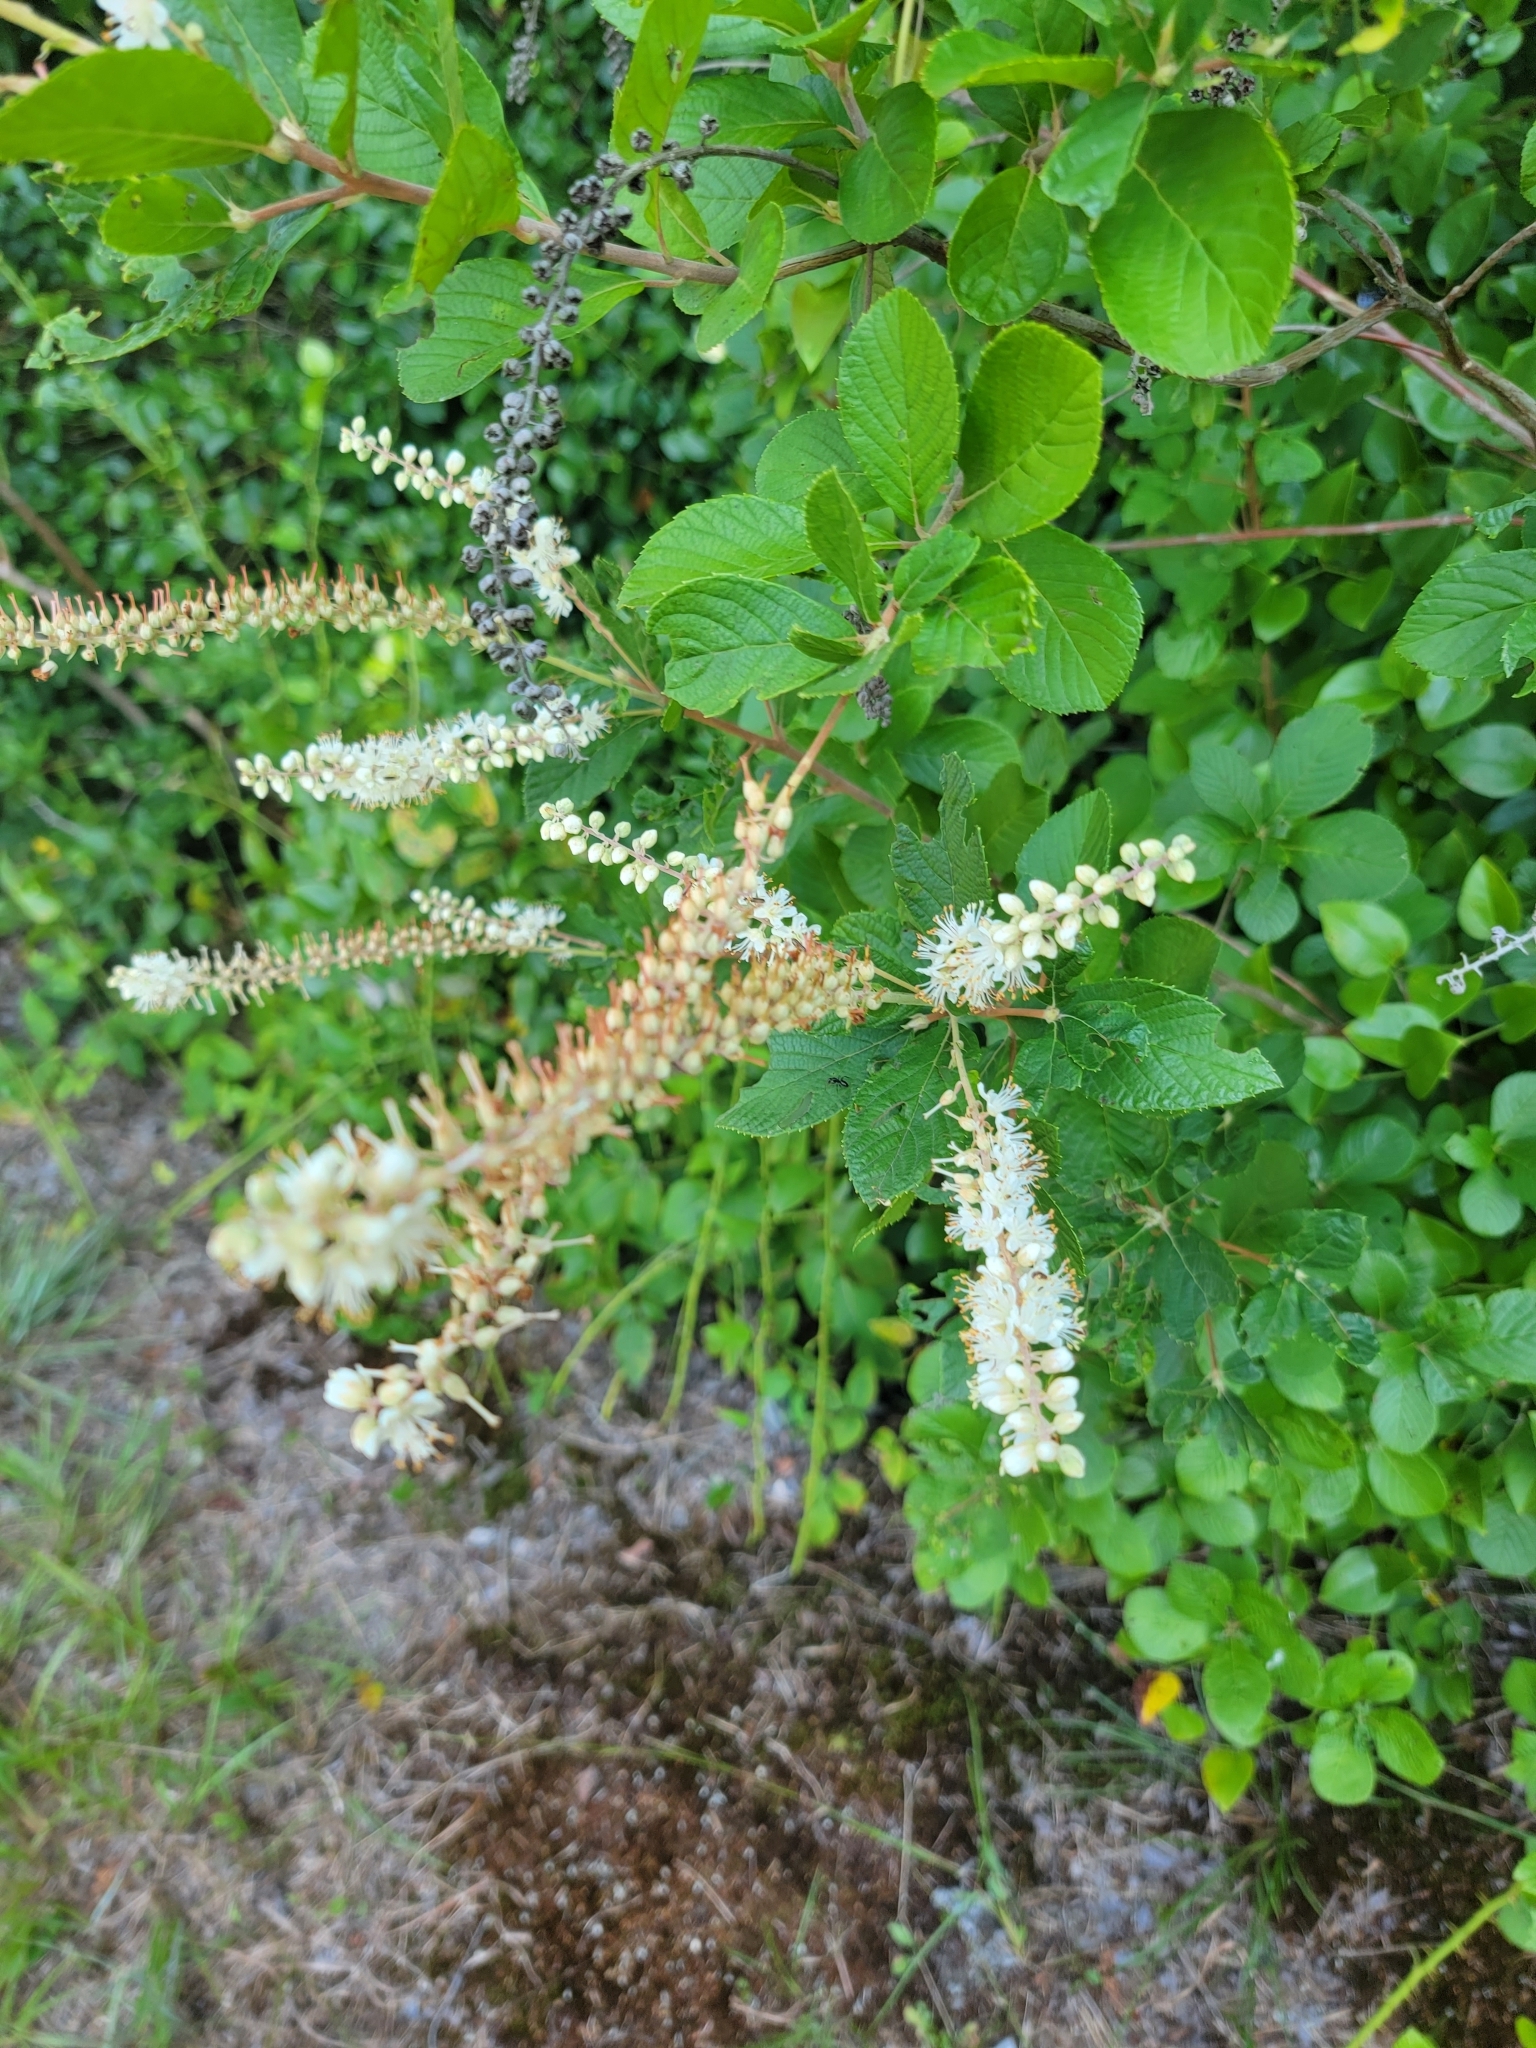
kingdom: Plantae
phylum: Tracheophyta
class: Magnoliopsida
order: Ericales
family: Clethraceae
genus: Clethra
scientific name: Clethra alnifolia
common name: Sweet pepperbush
